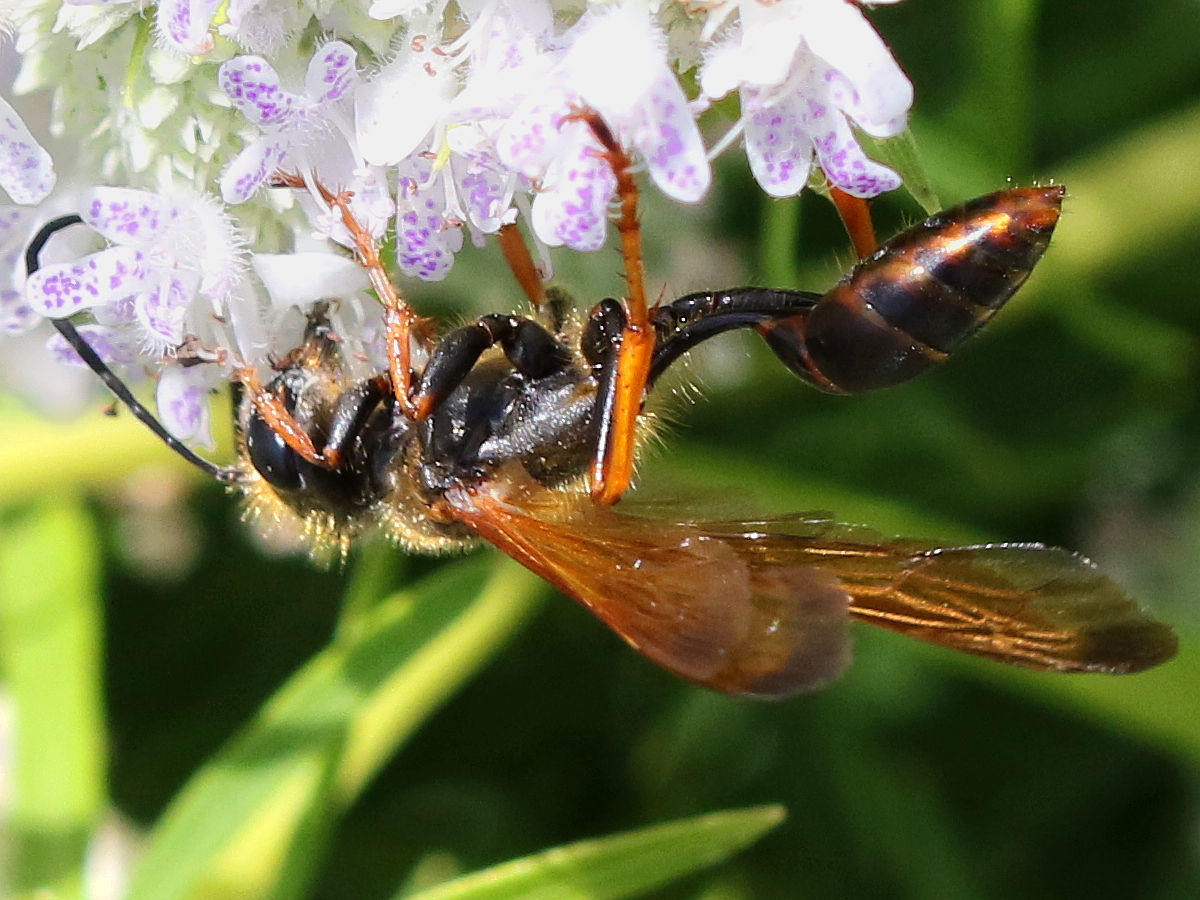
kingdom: Animalia
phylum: Arthropoda
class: Insecta
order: Hymenoptera
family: Sphecidae
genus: Isodontia
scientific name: Isodontia elegans
